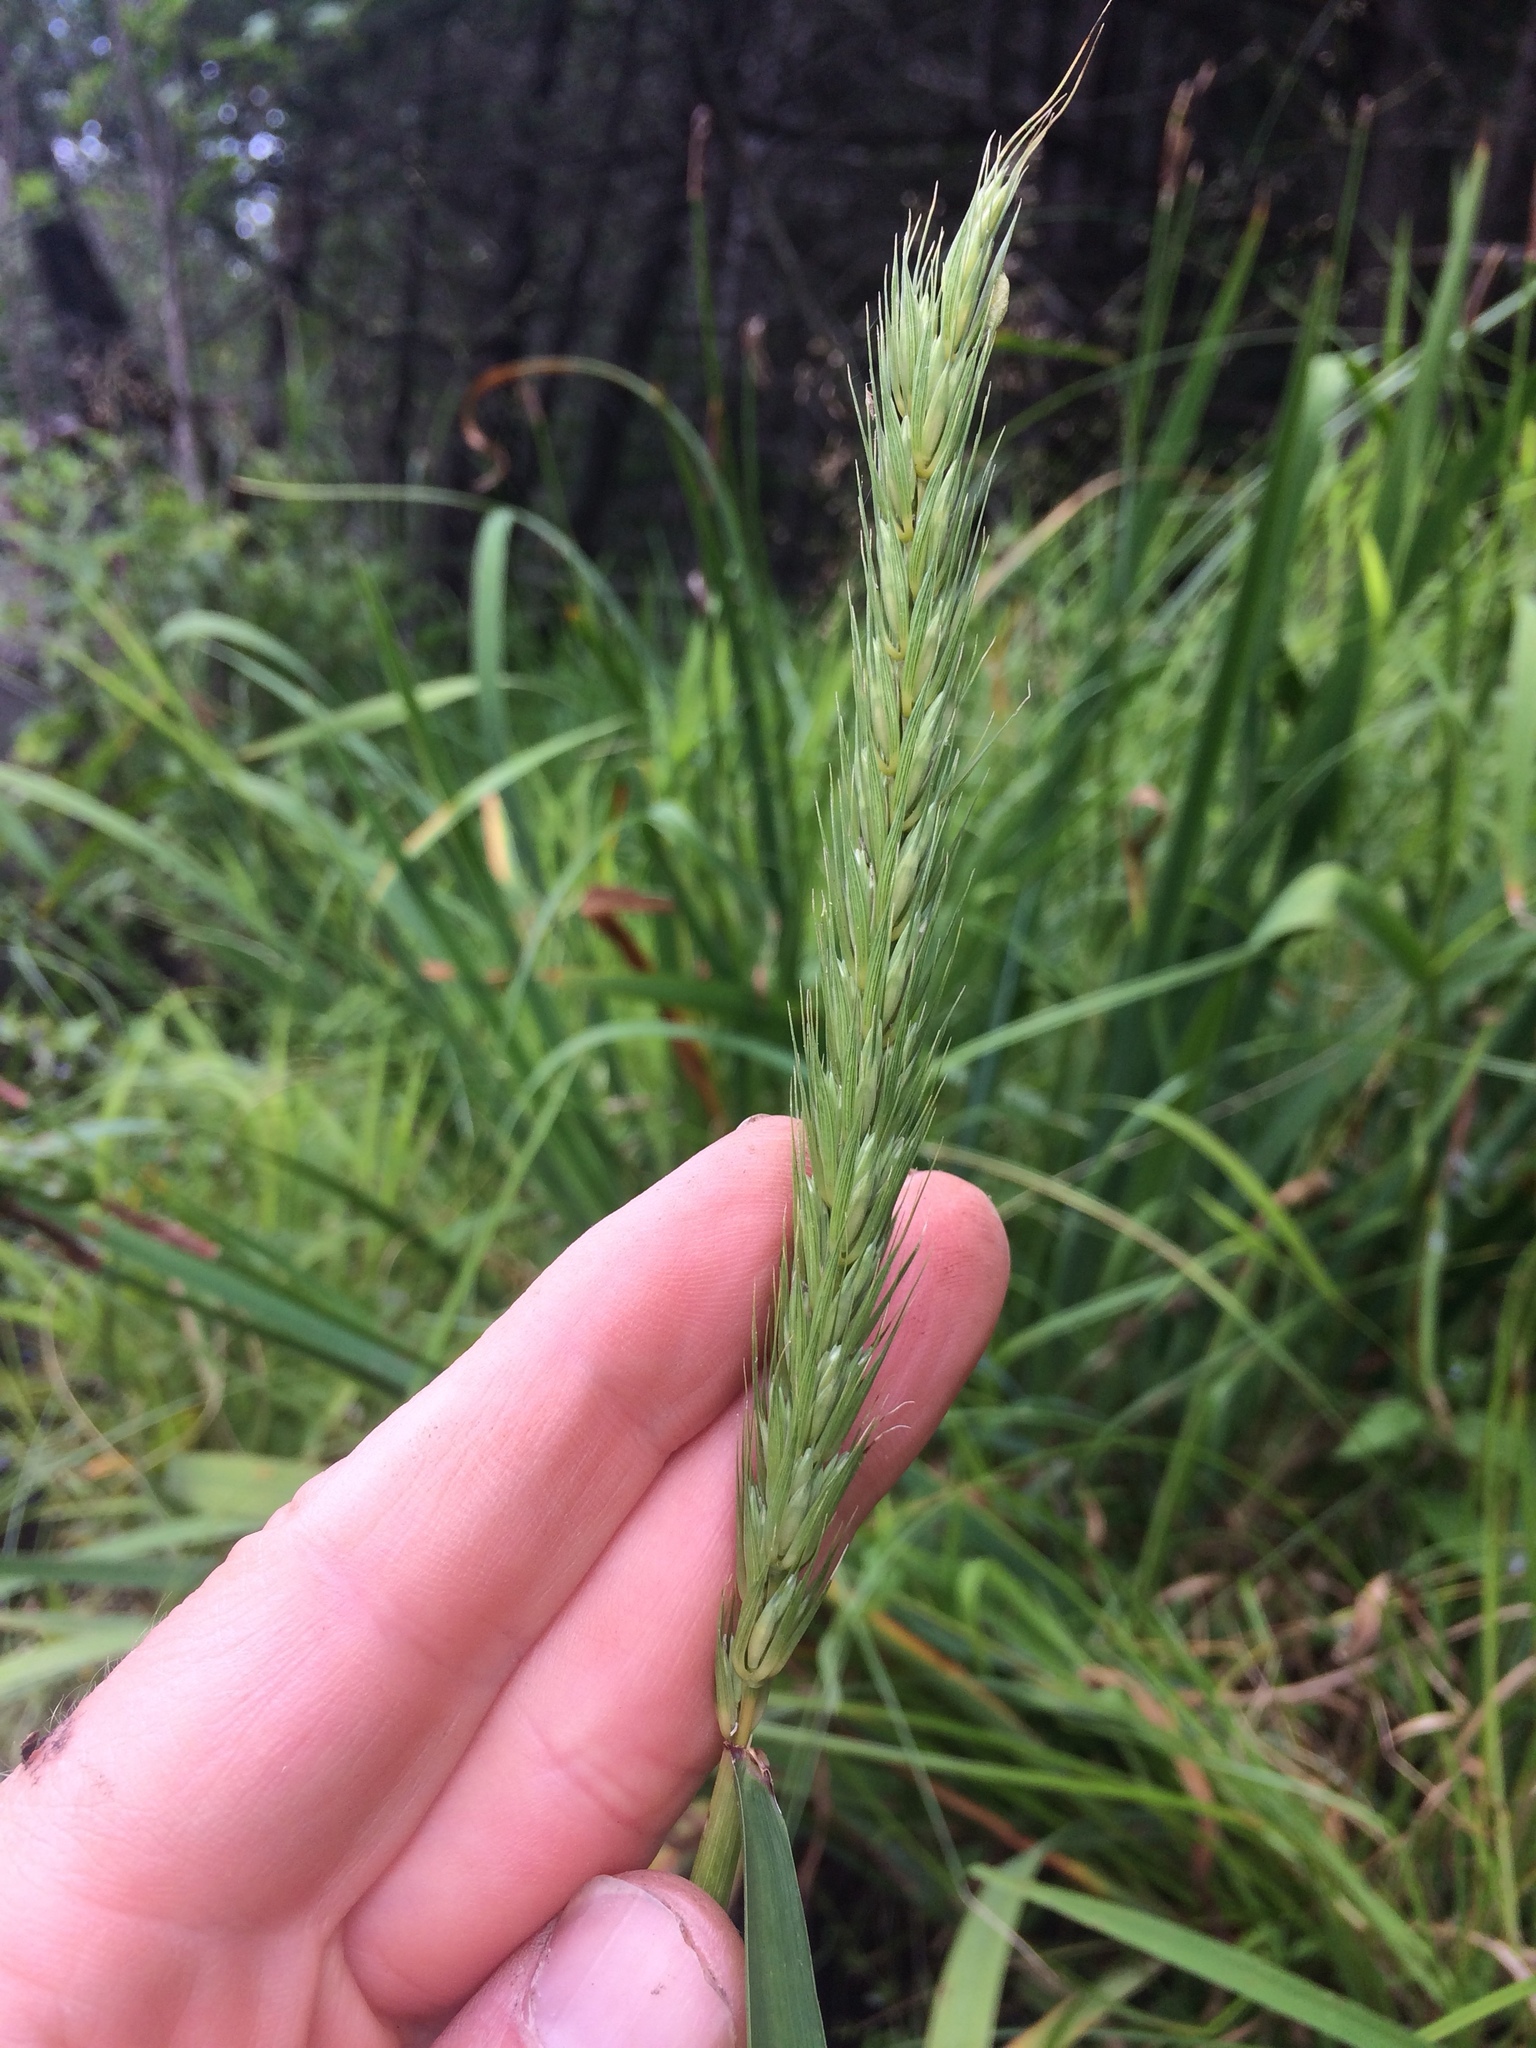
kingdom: Plantae
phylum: Tracheophyta
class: Liliopsida
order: Poales
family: Poaceae
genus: Elymus
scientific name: Elymus virginicus
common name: Common eastern wildrye
